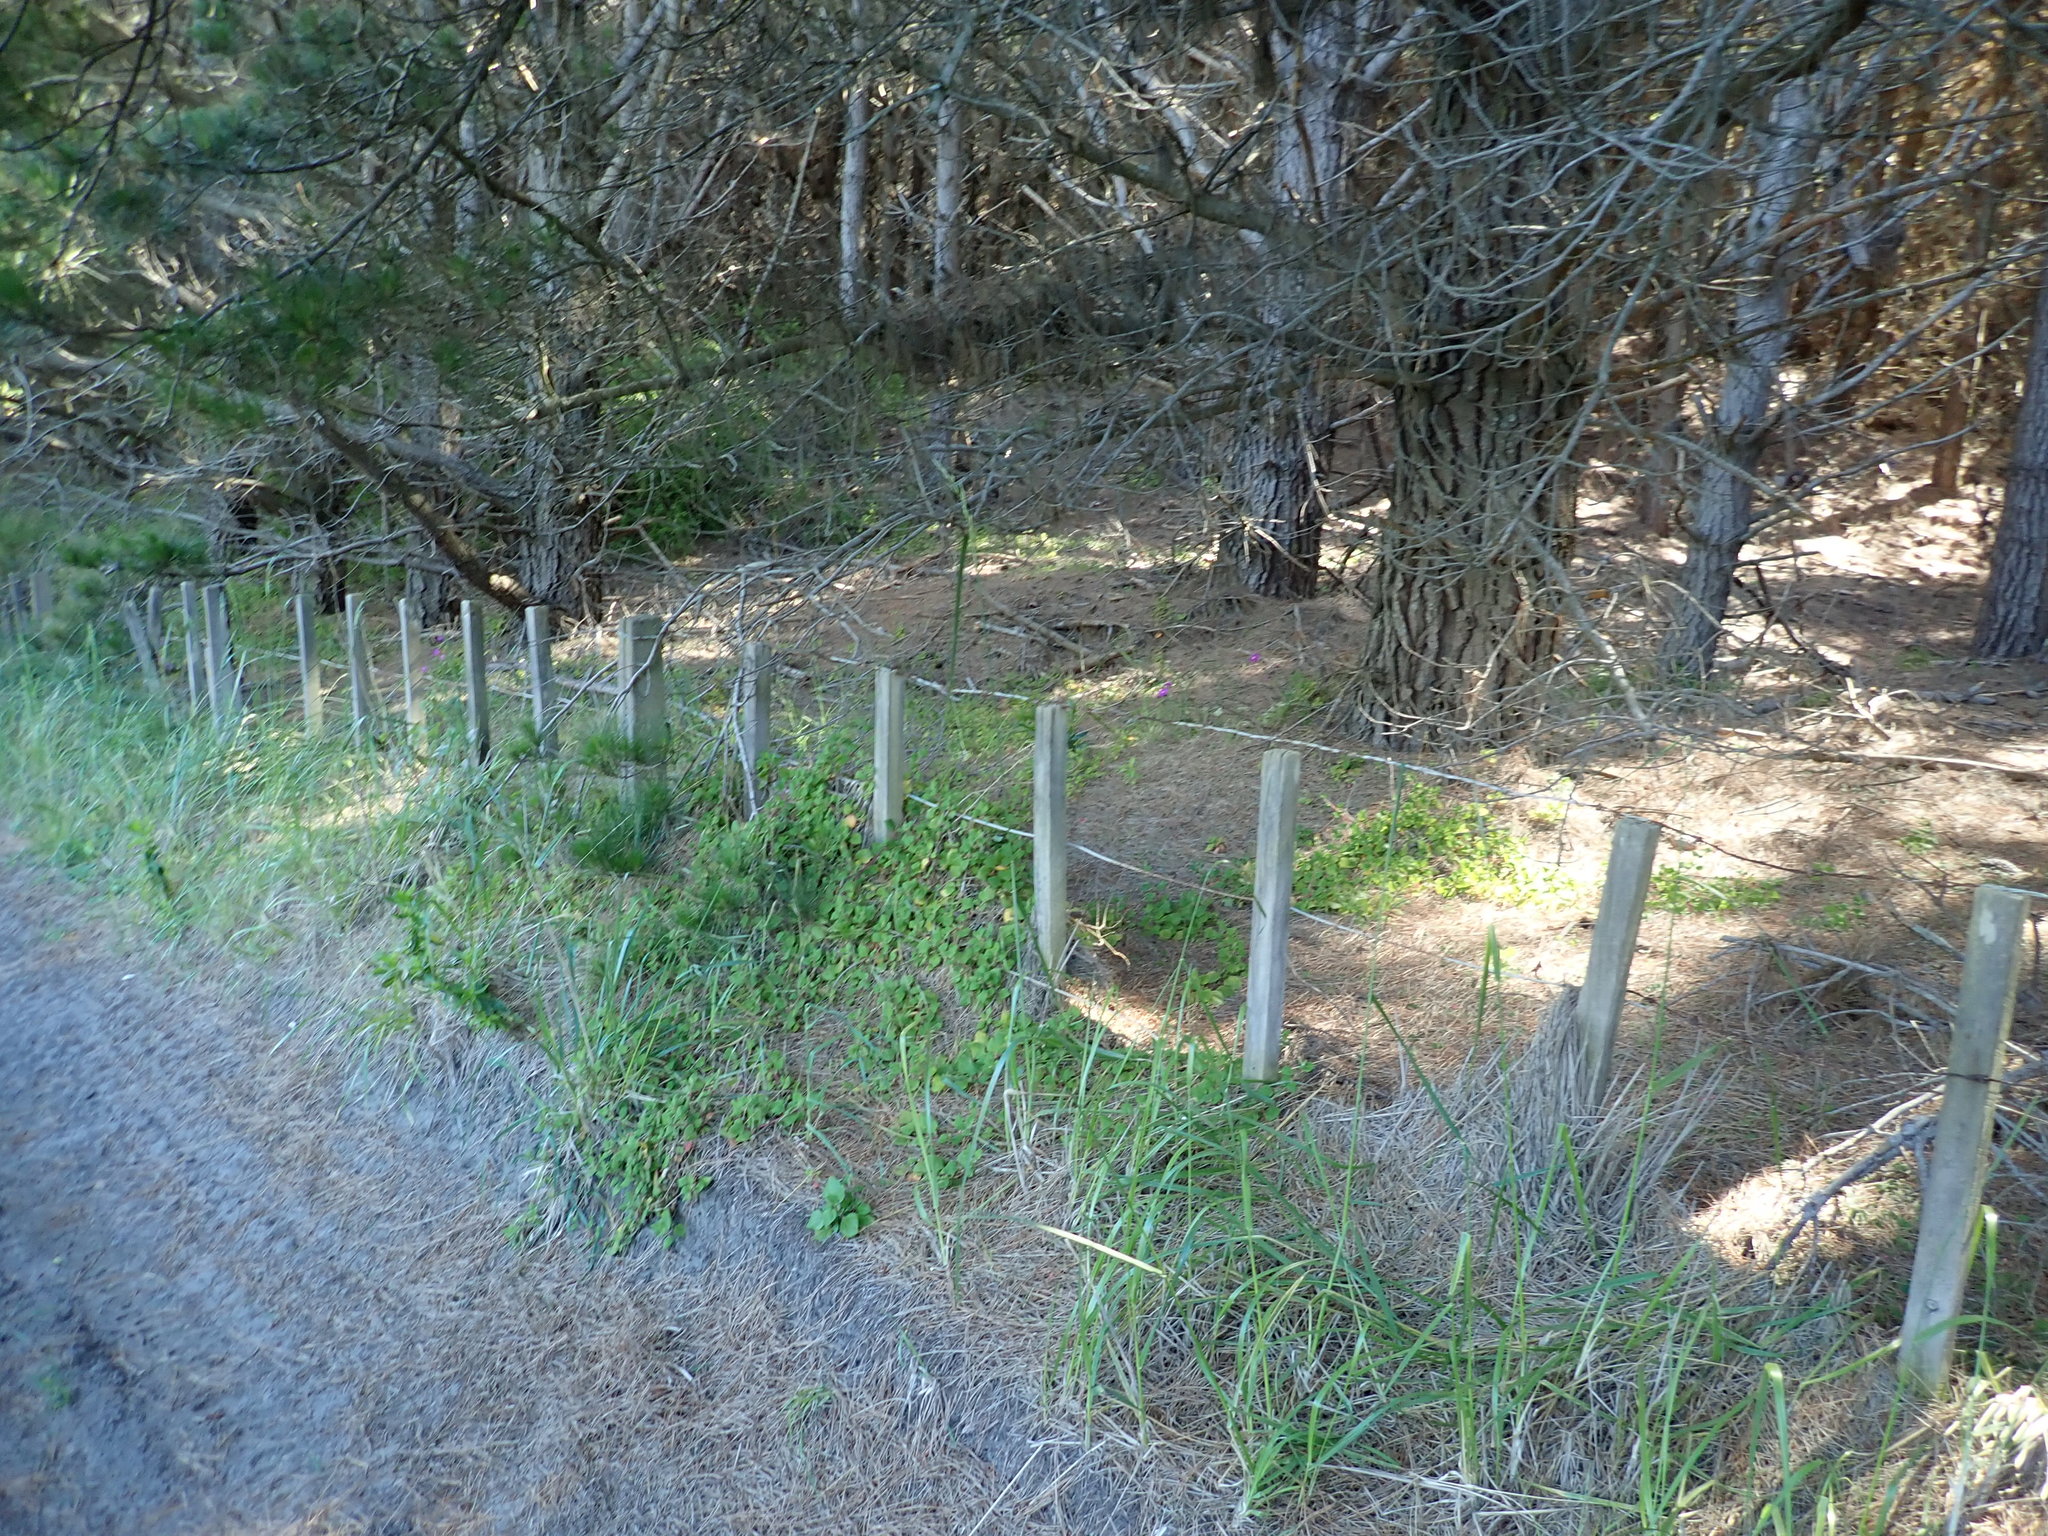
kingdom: Plantae
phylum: Tracheophyta
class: Magnoliopsida
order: Caryophyllales
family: Aizoaceae
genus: Tetragonia
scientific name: Tetragonia implexicoma
